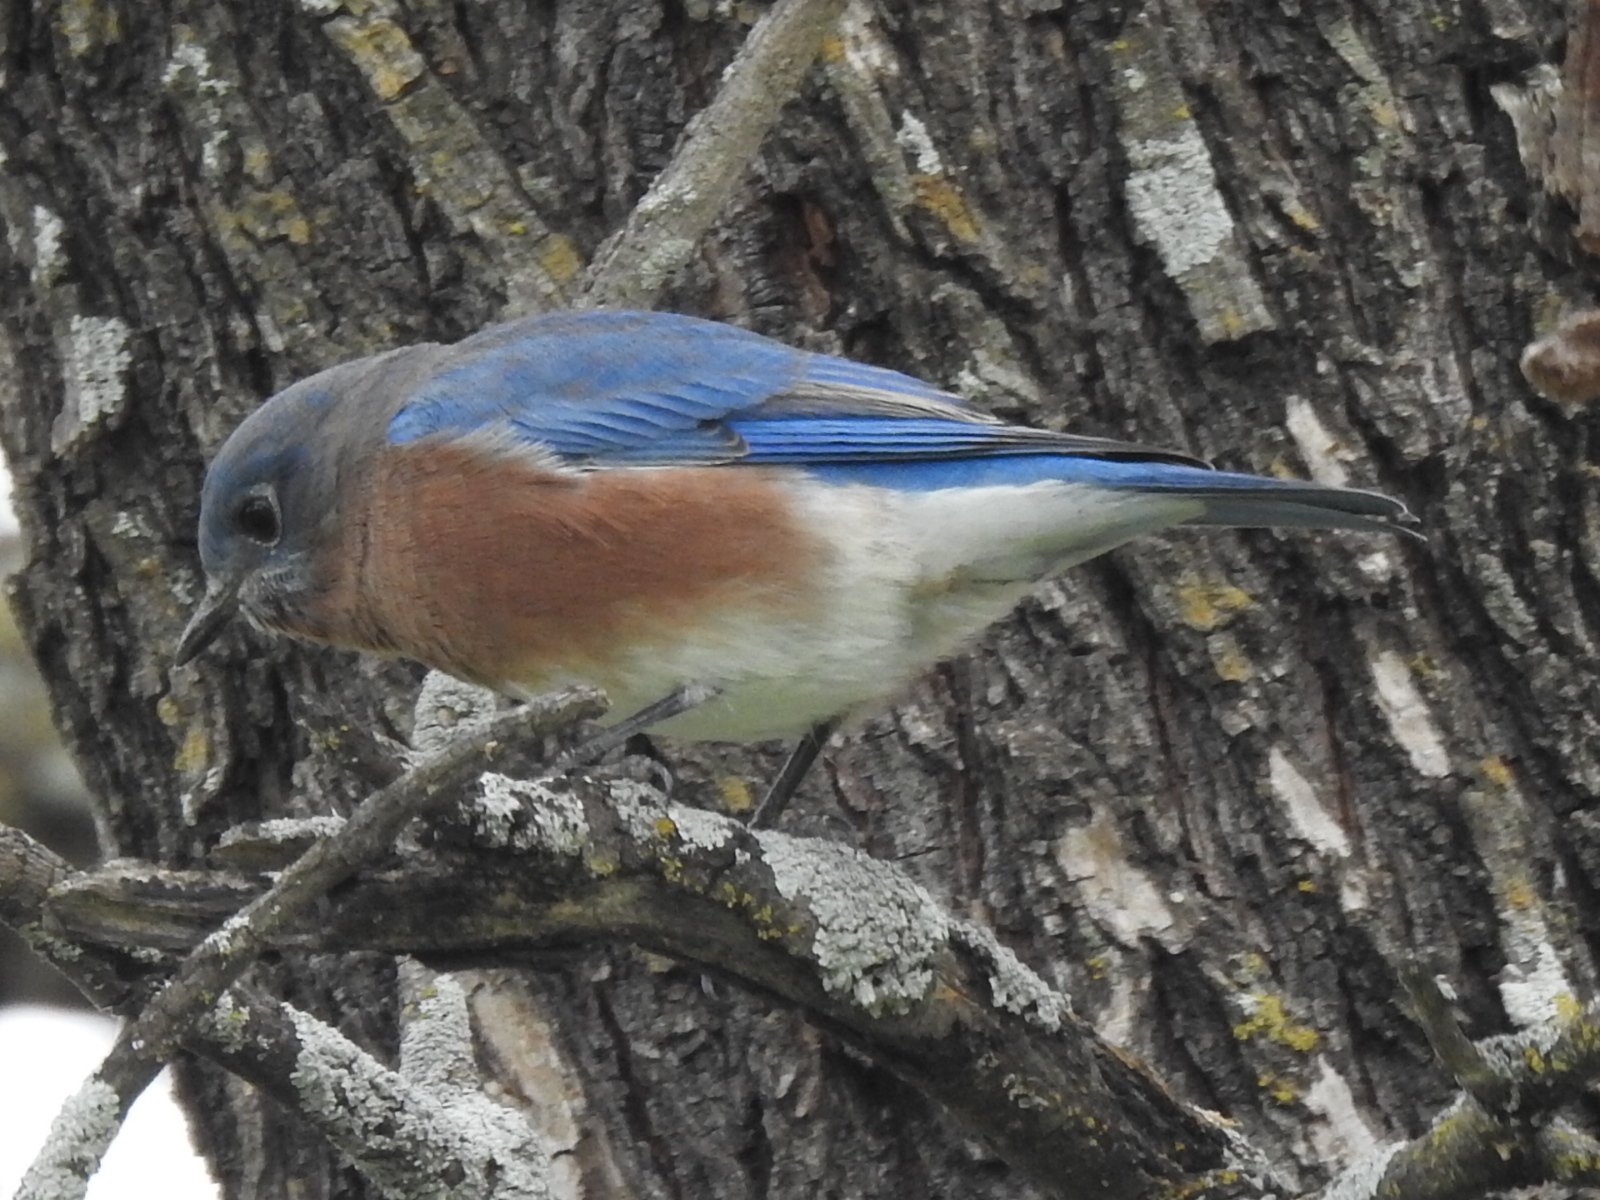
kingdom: Animalia
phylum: Chordata
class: Aves
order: Passeriformes
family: Turdidae
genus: Sialia
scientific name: Sialia sialis
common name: Eastern bluebird
